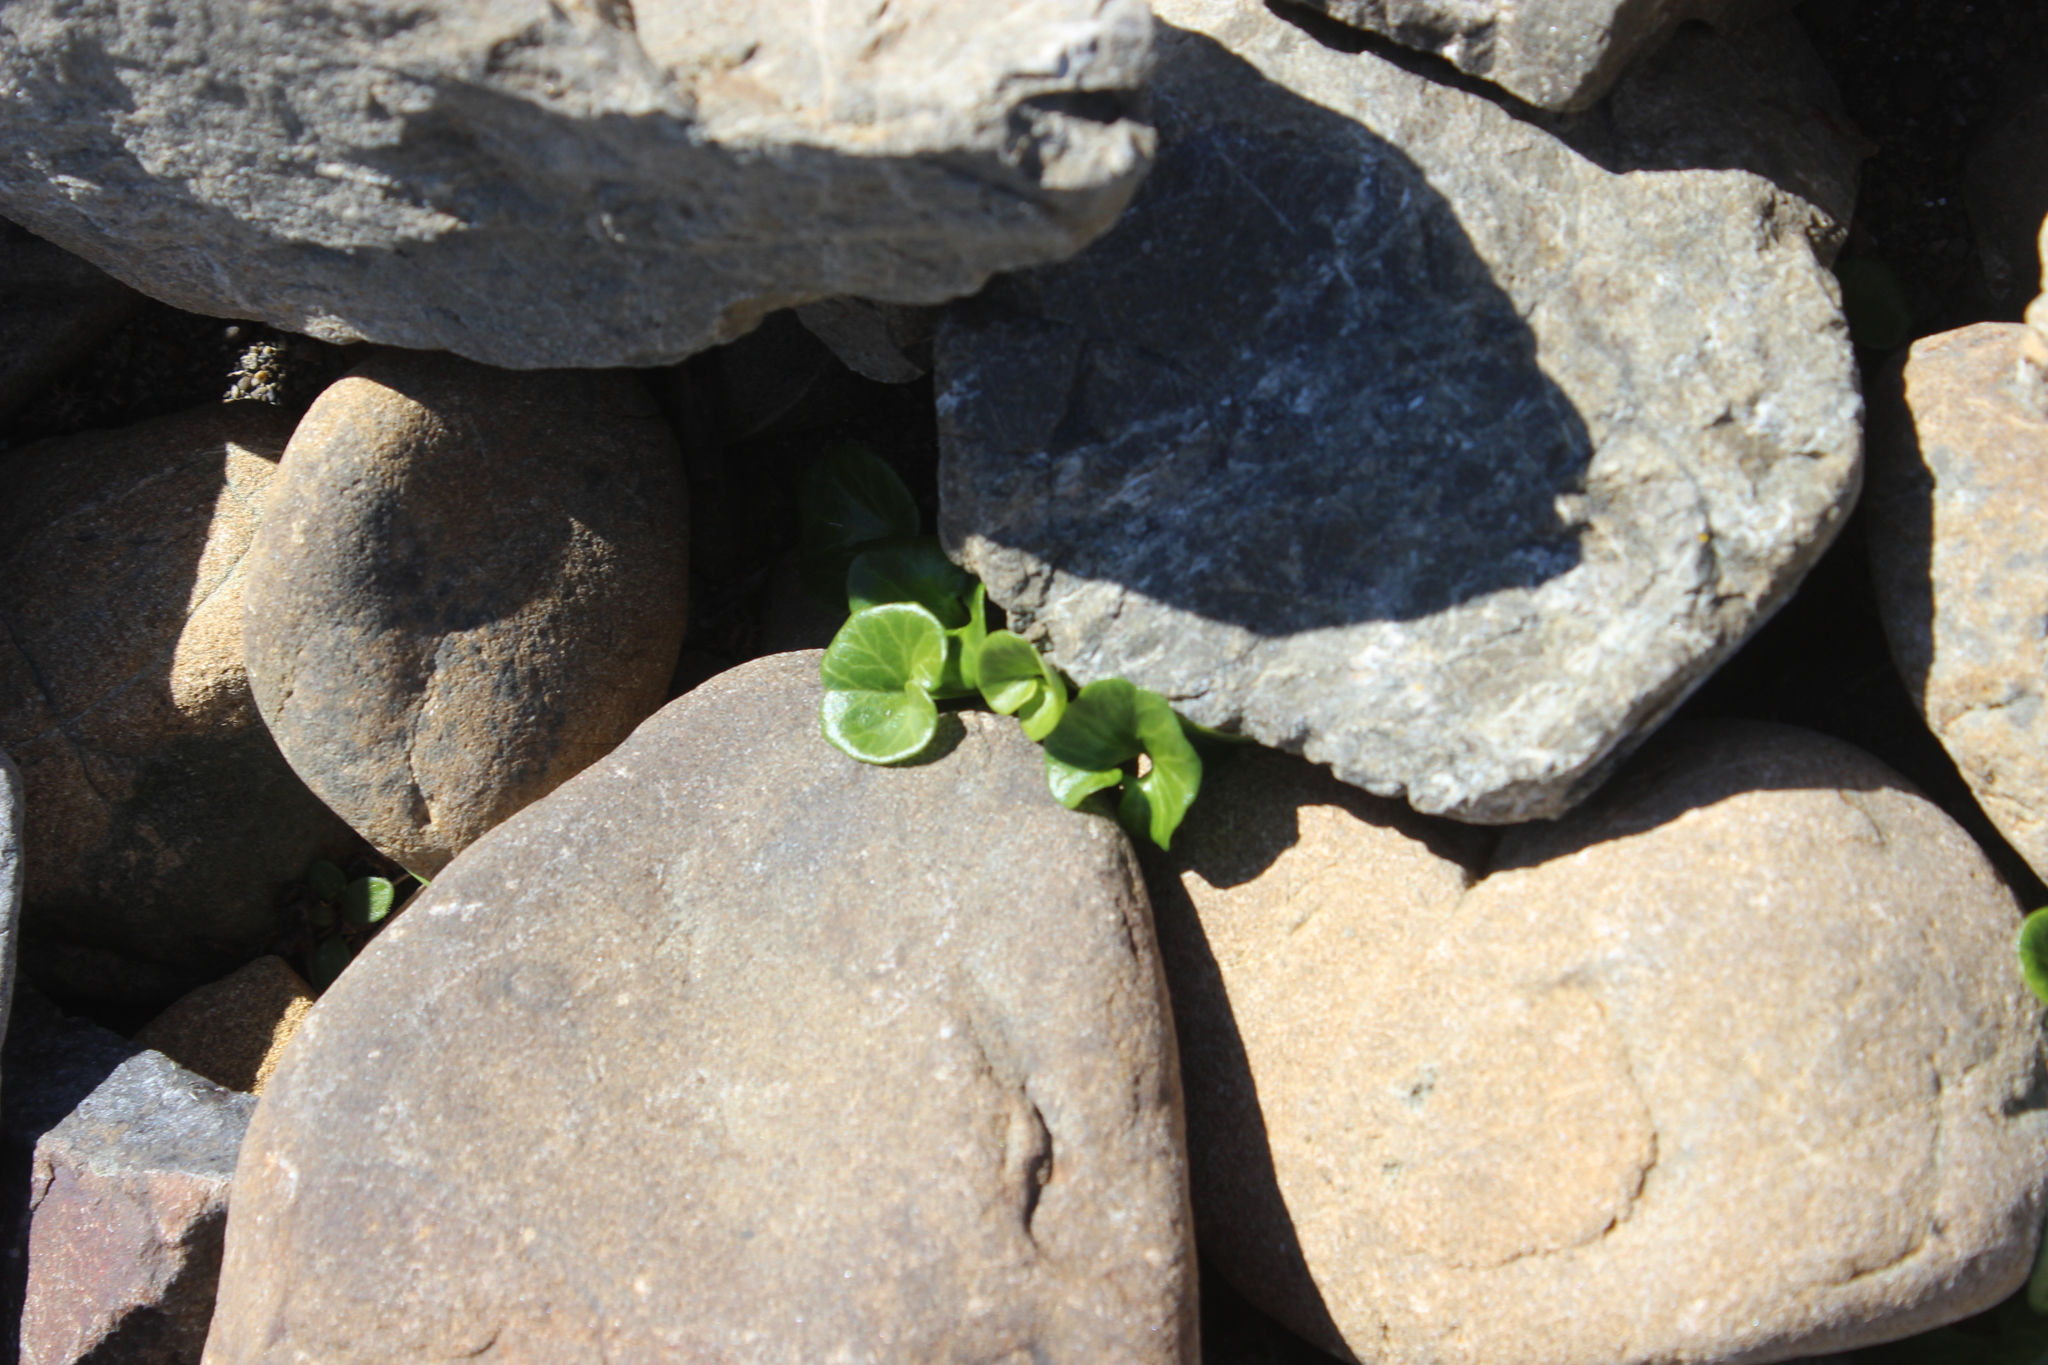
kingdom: Plantae
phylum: Tracheophyta
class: Magnoliopsida
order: Solanales
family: Convolvulaceae
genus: Calystegia
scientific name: Calystegia soldanella
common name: Sea bindweed
